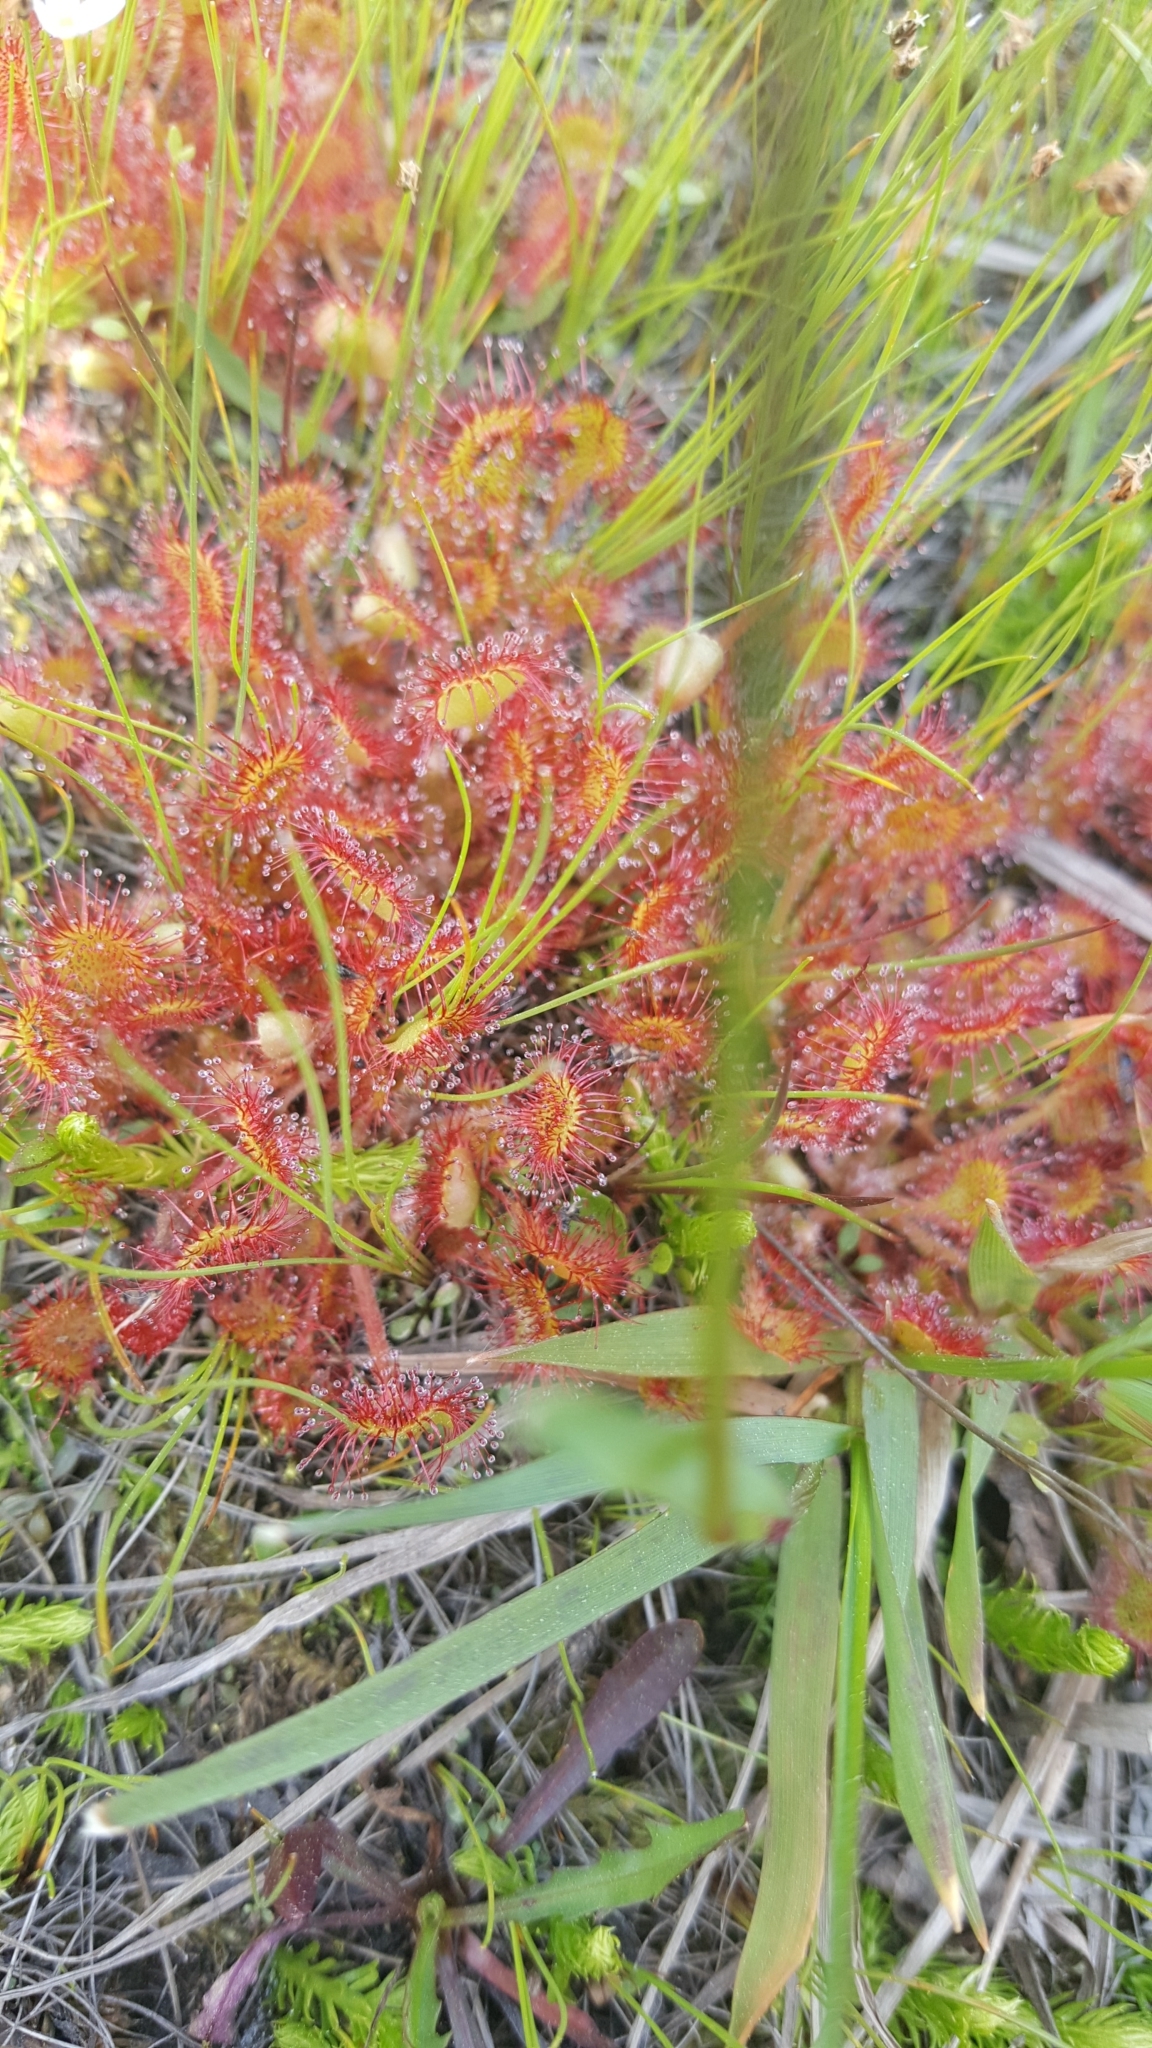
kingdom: Plantae
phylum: Tracheophyta
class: Magnoliopsida
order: Caryophyllales
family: Droseraceae
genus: Drosera
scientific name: Drosera rotundifolia
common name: Round-leaved sundew
